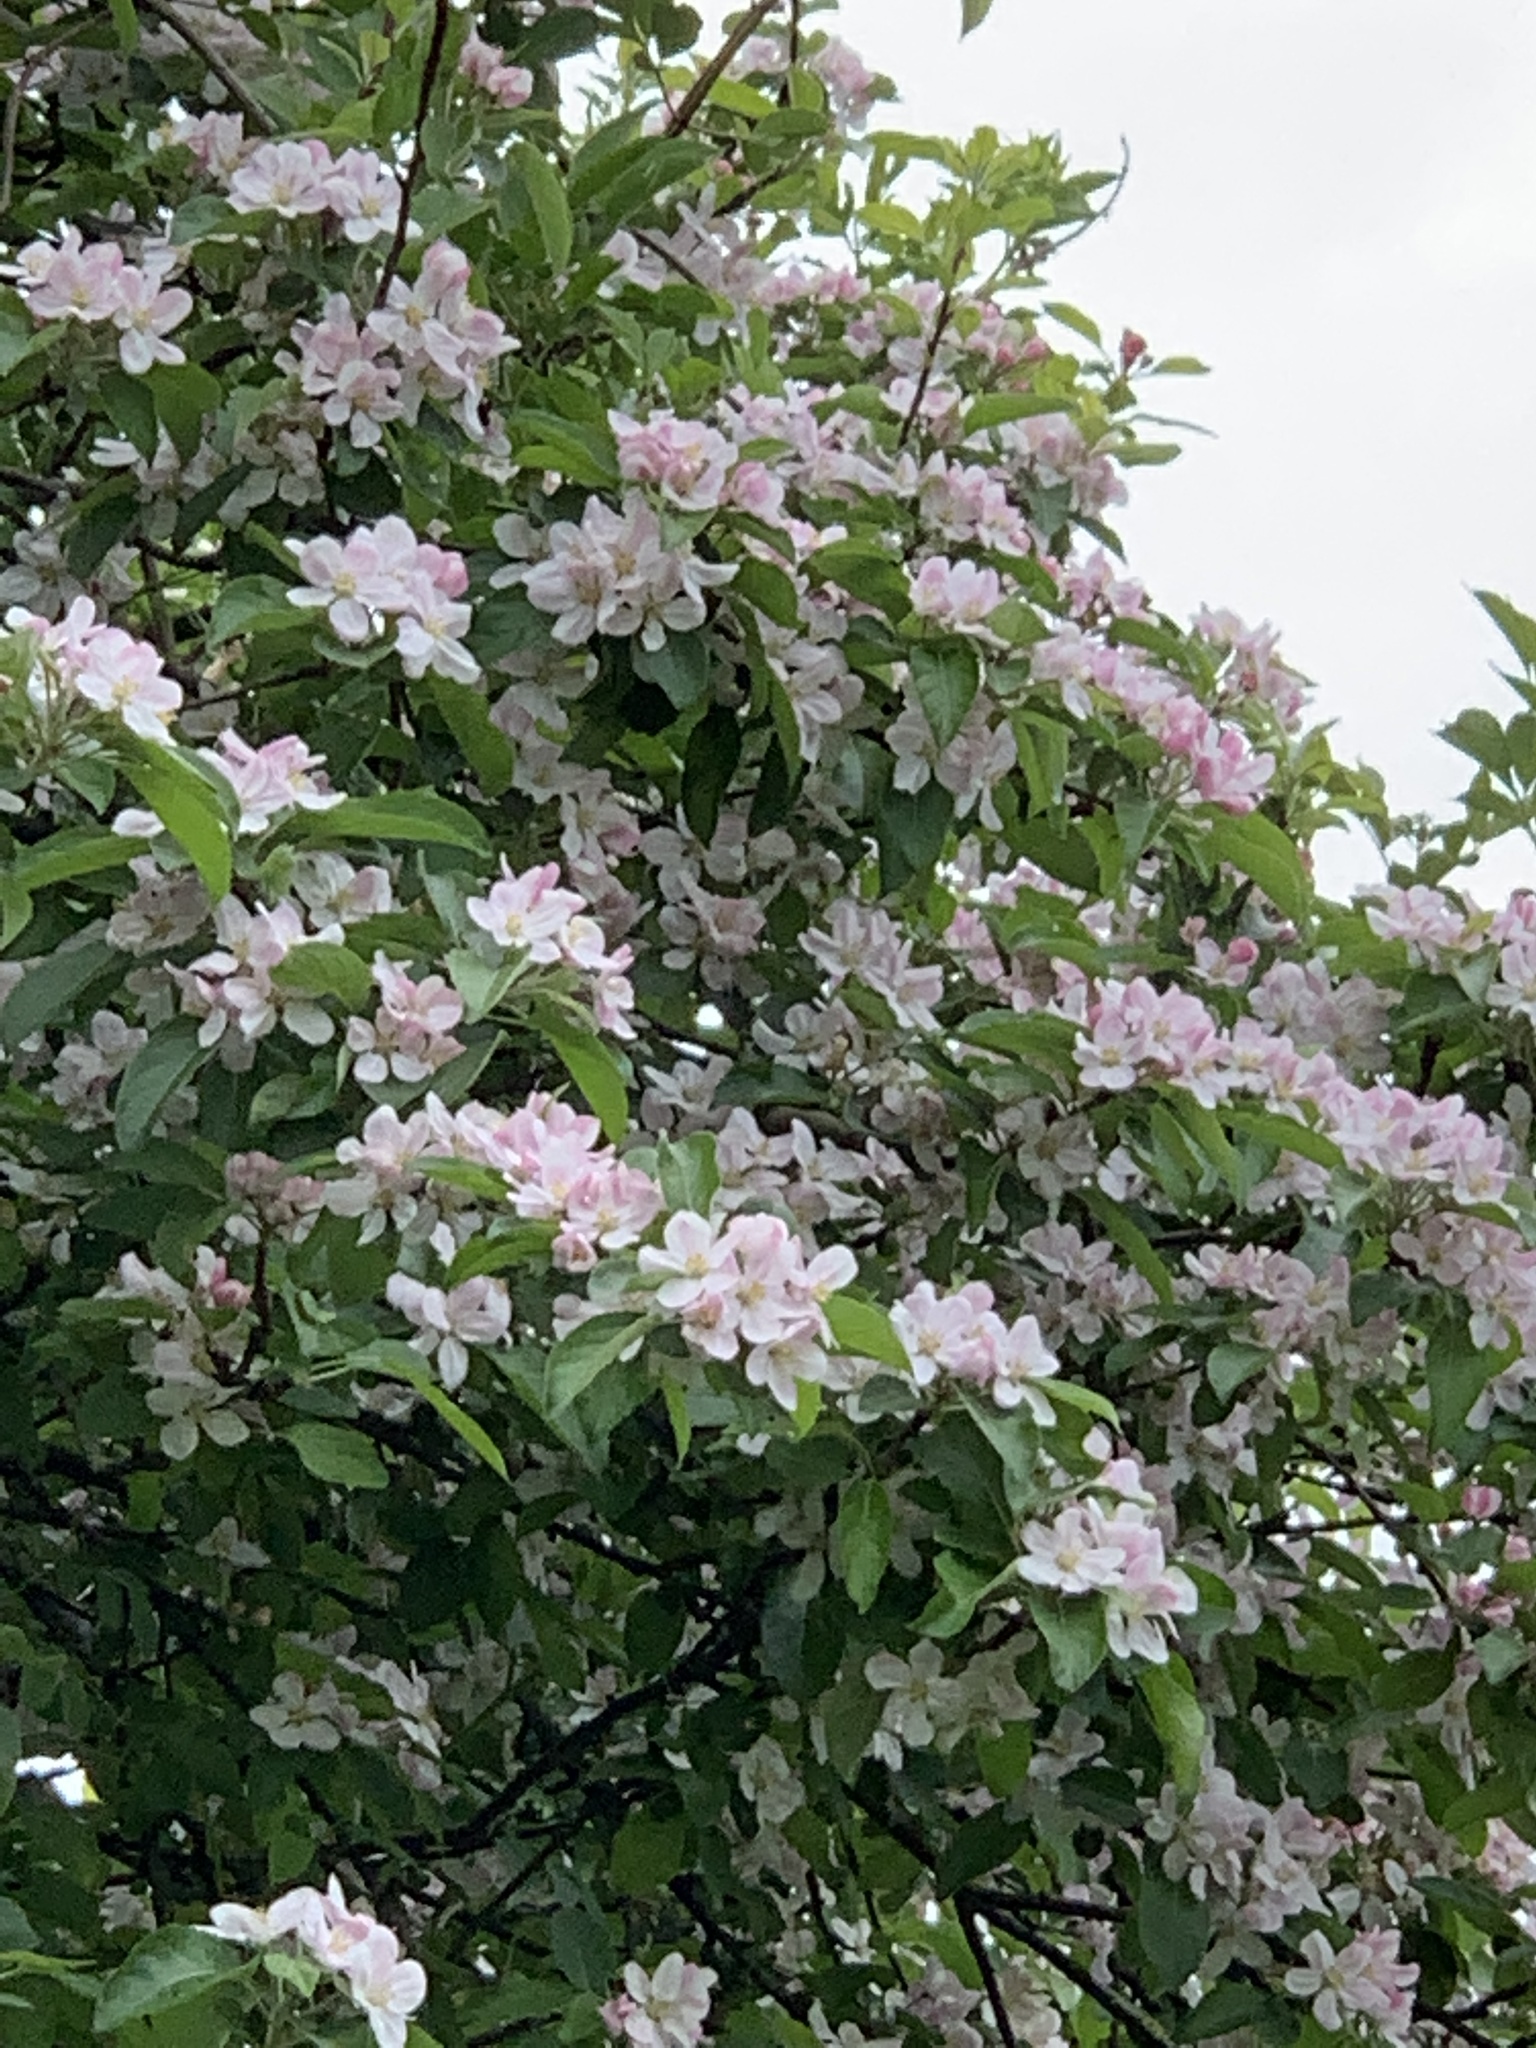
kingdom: Plantae
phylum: Tracheophyta
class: Magnoliopsida
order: Rosales
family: Rosaceae
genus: Malus
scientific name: Malus domestica
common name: Apple
